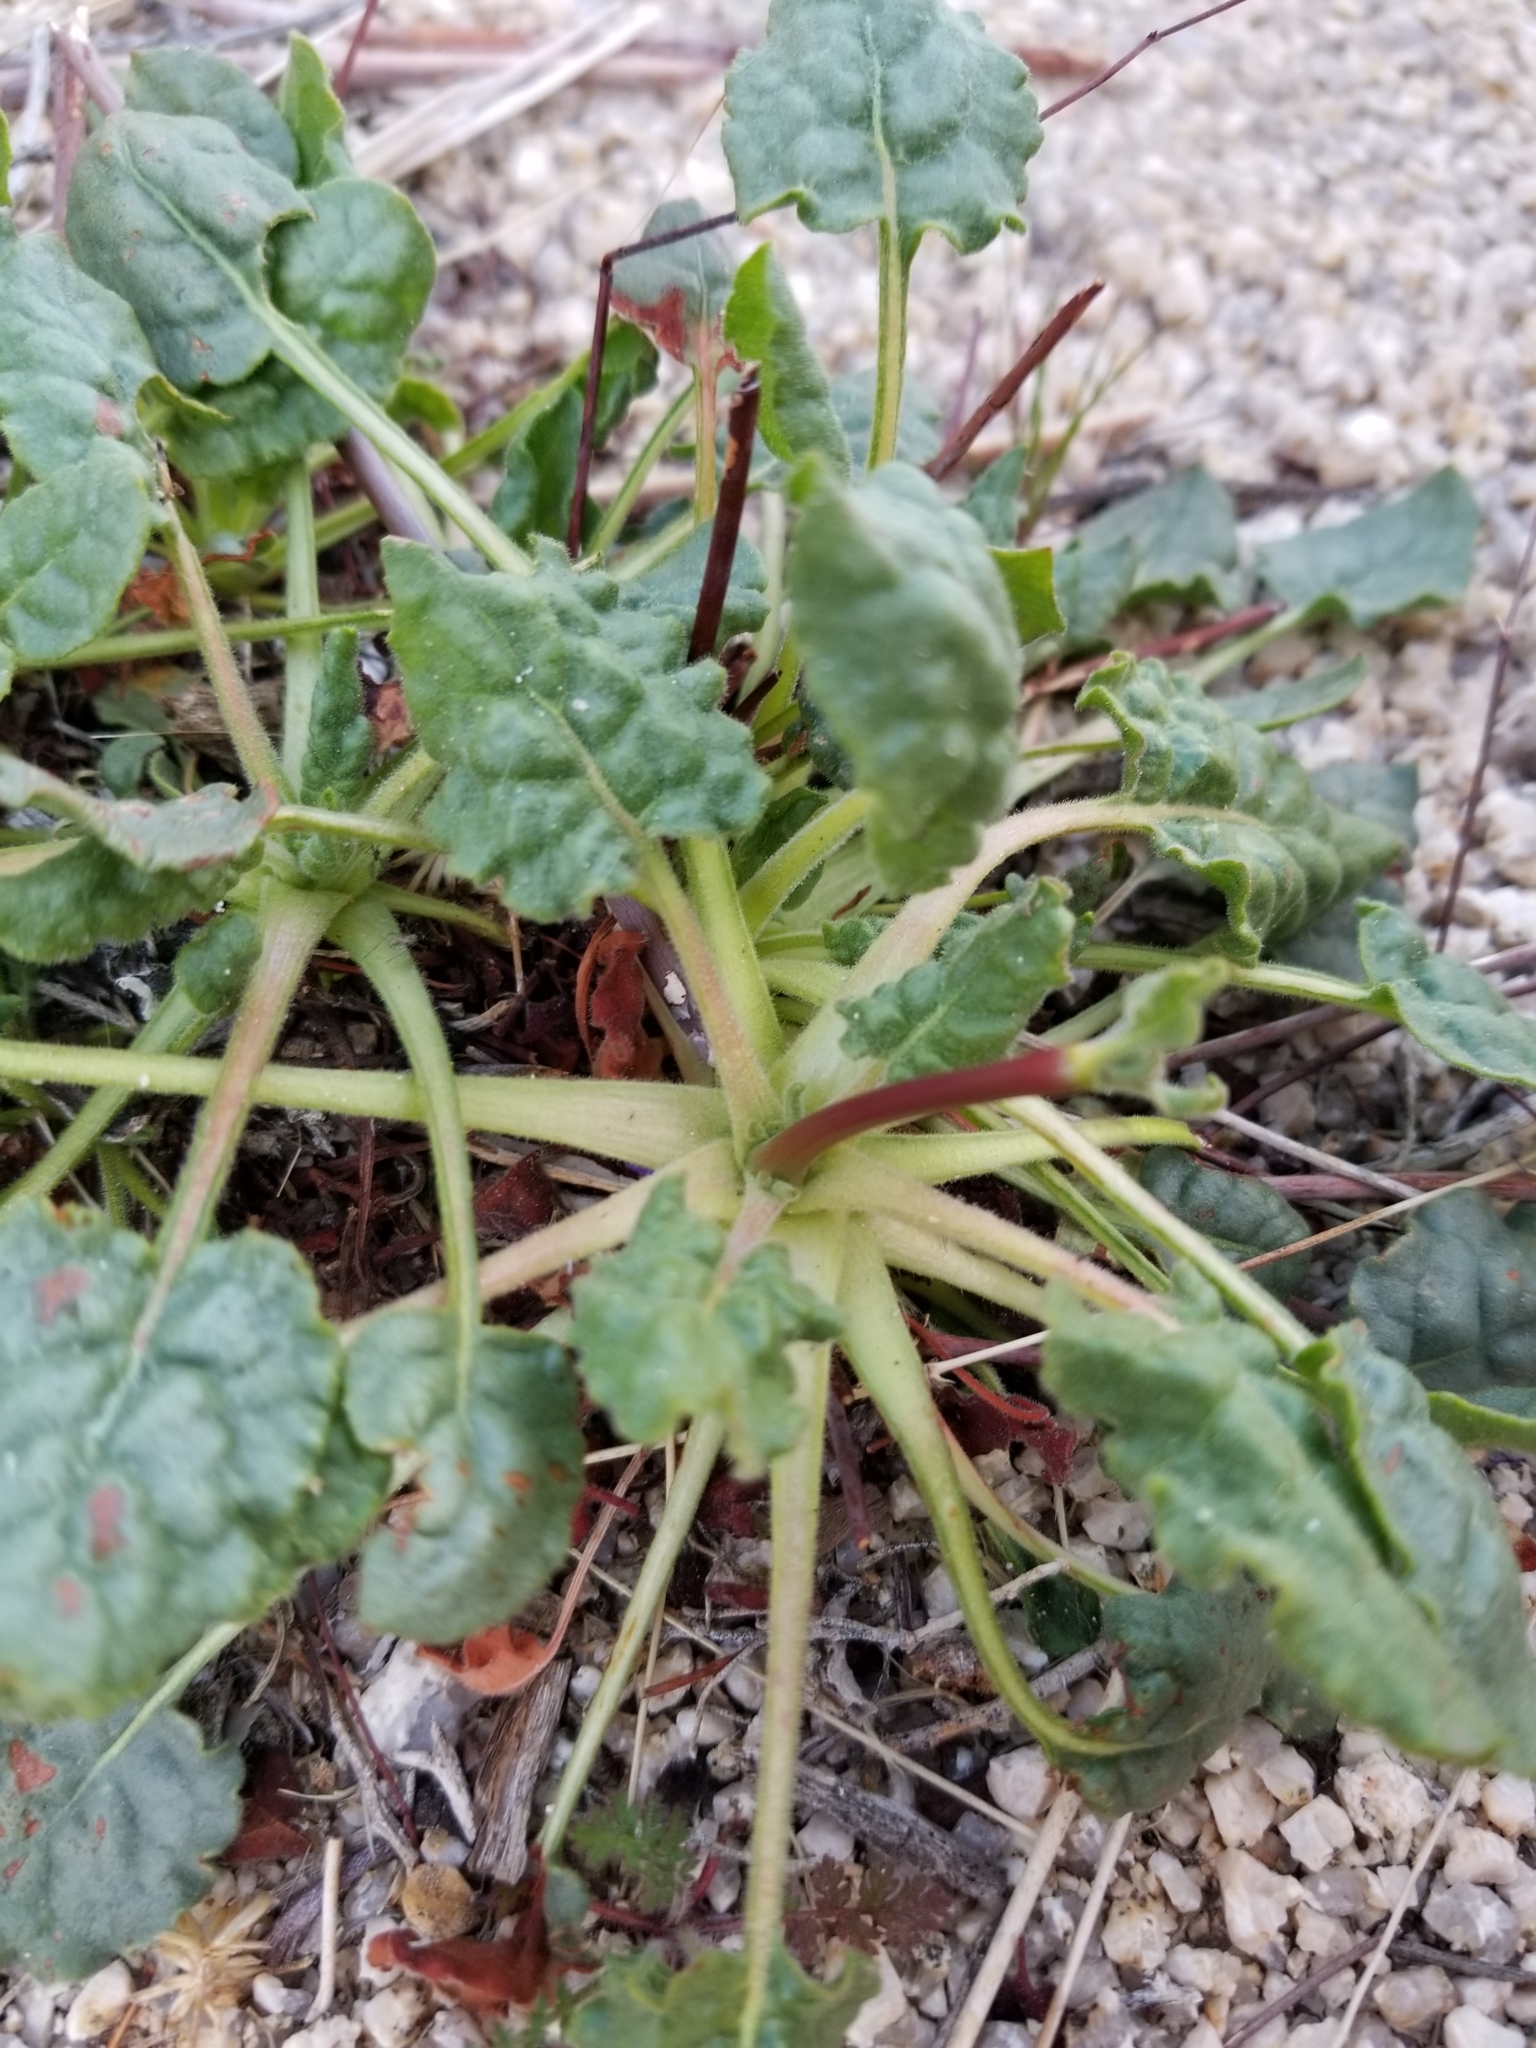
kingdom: Plantae
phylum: Tracheophyta
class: Magnoliopsida
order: Caryophyllales
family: Polygonaceae
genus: Eriogonum
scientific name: Eriogonum inflatum
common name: Desert trumpet
